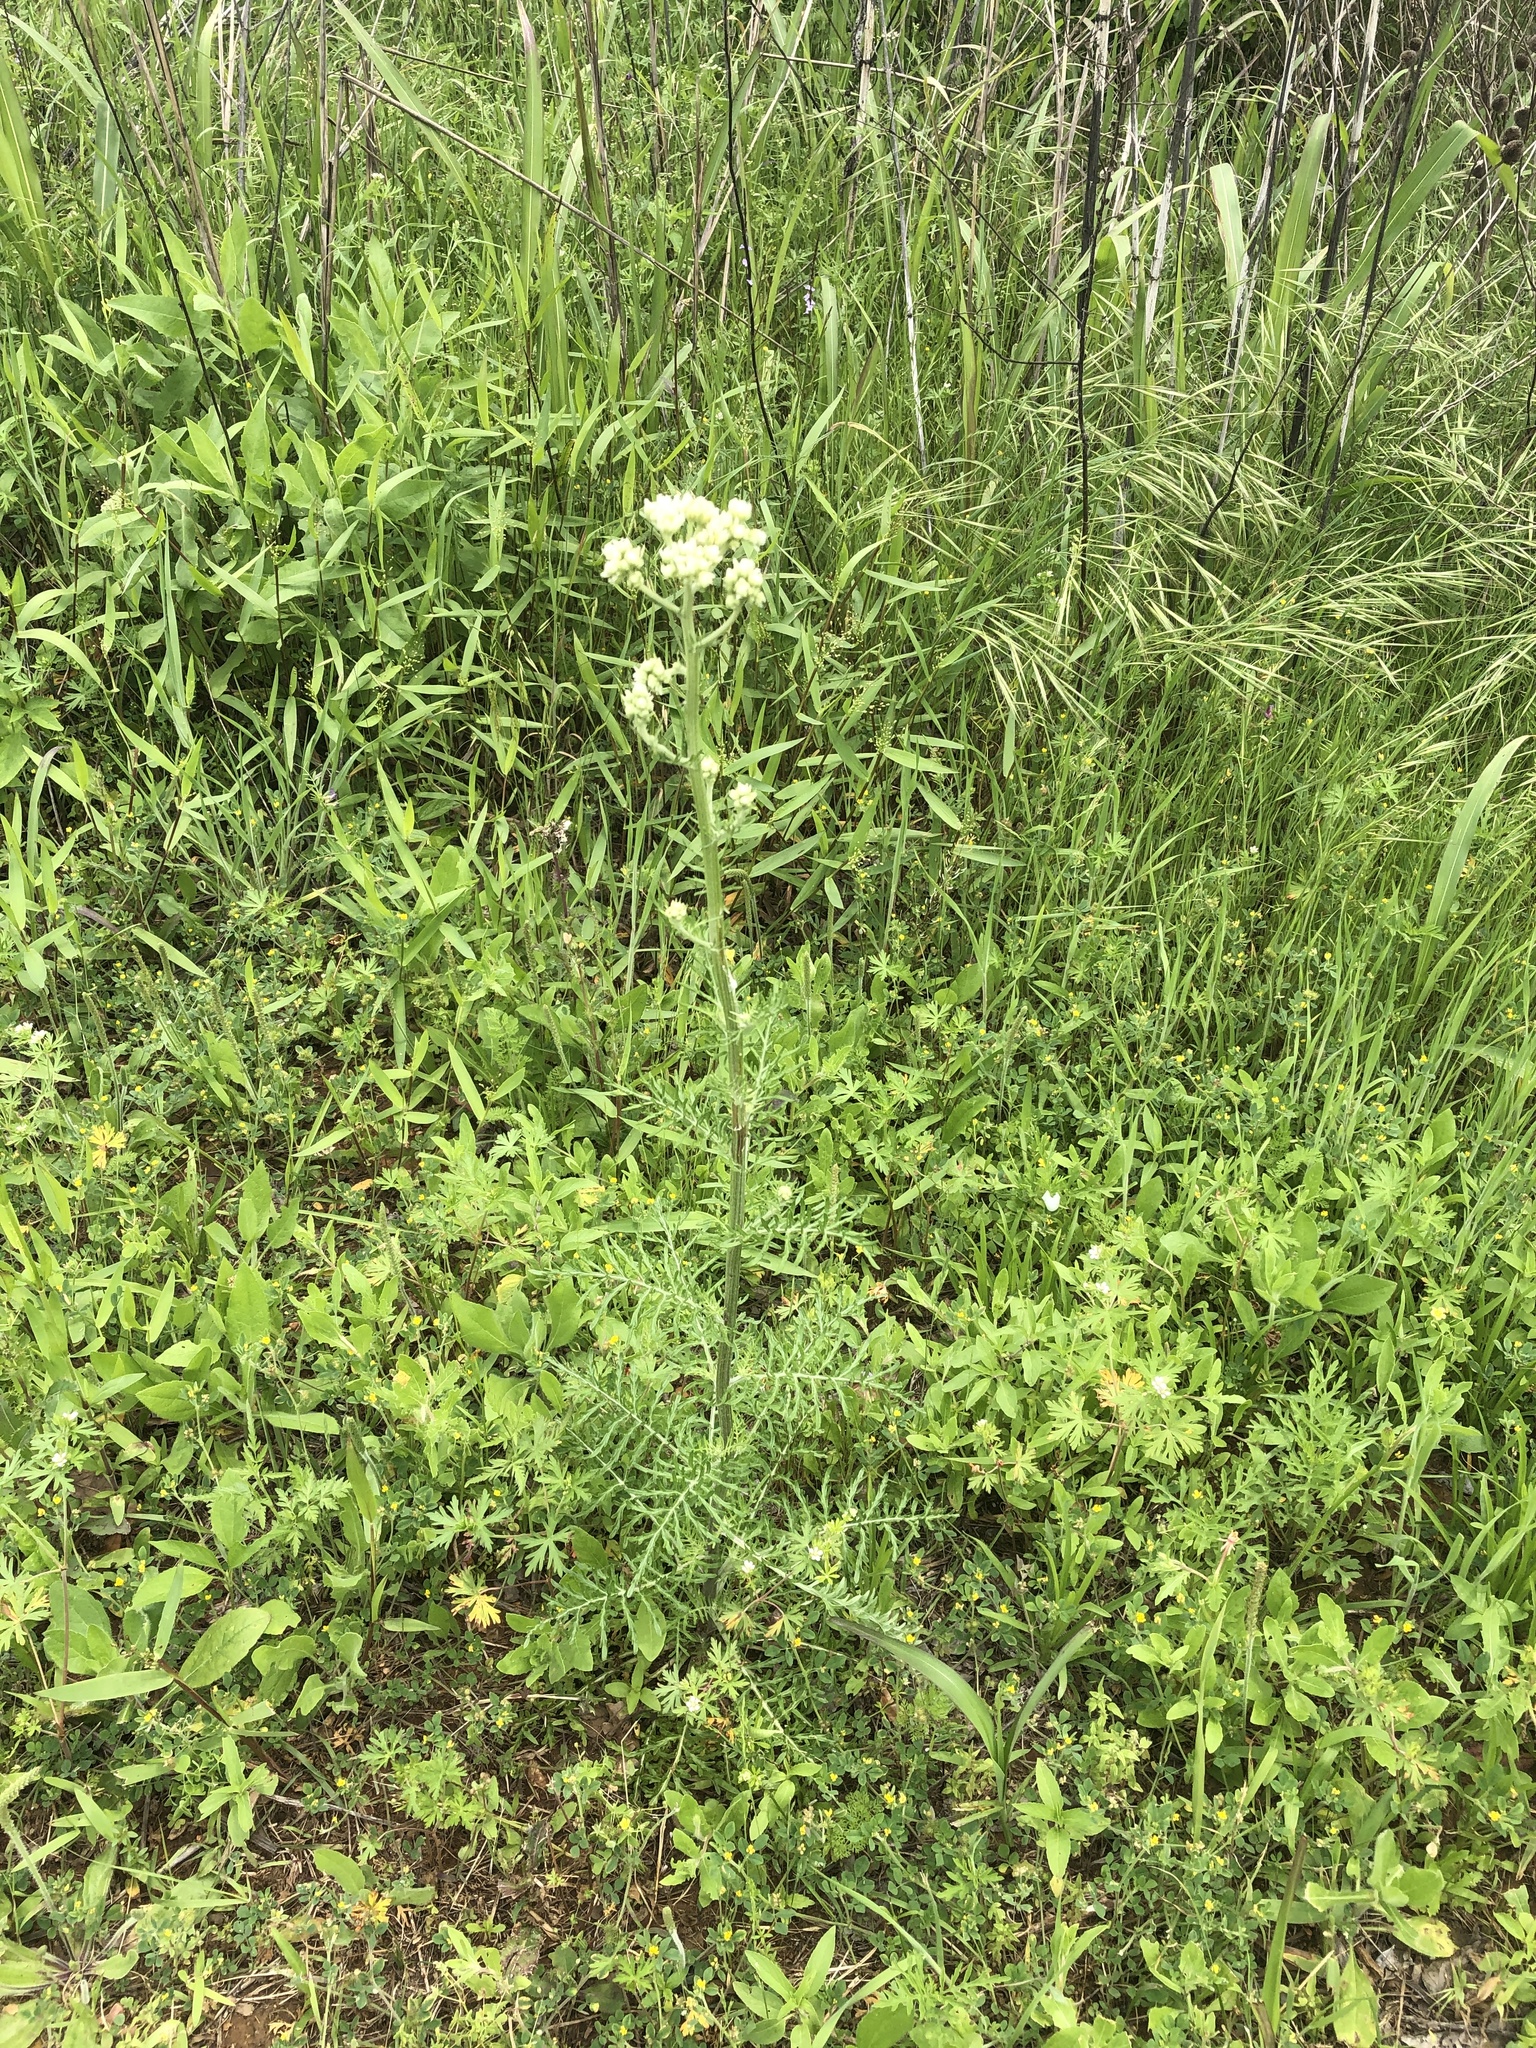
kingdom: Plantae
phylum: Tracheophyta
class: Magnoliopsida
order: Asterales
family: Asteraceae
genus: Hymenopappus
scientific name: Hymenopappus scabiosaeus
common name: Carolina woollywhite
